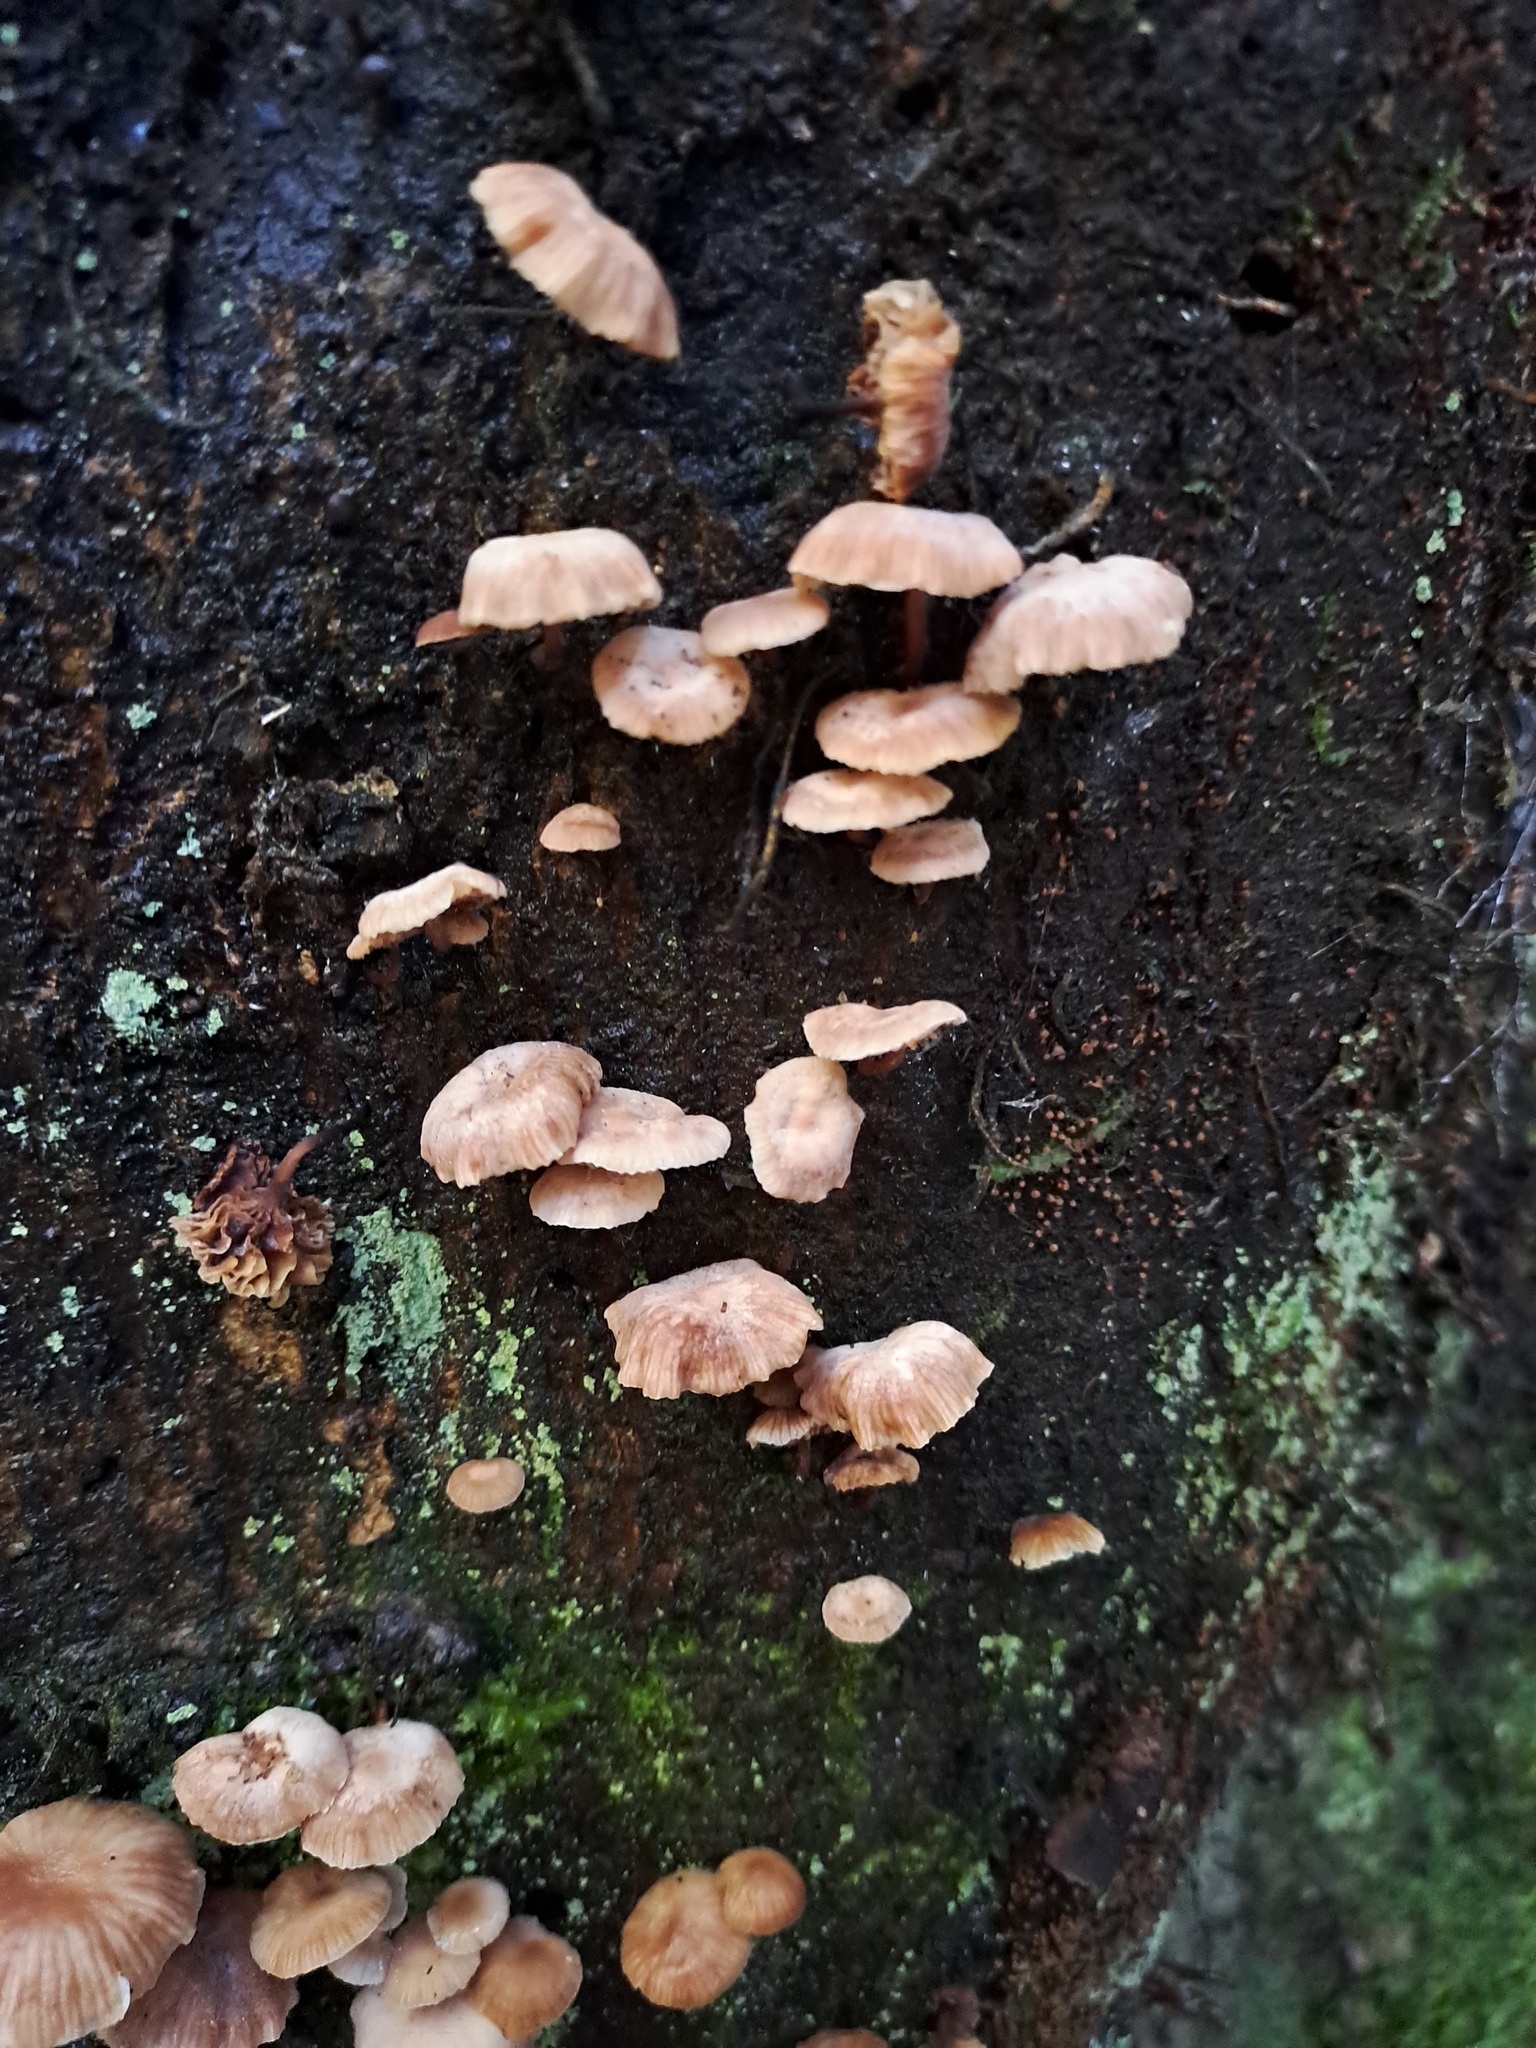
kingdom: Fungi
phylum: Basidiomycota
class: Agaricomycetes
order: Agaricales
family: Omphalotaceae
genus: Mycetinis
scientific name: Mycetinis curraniae
